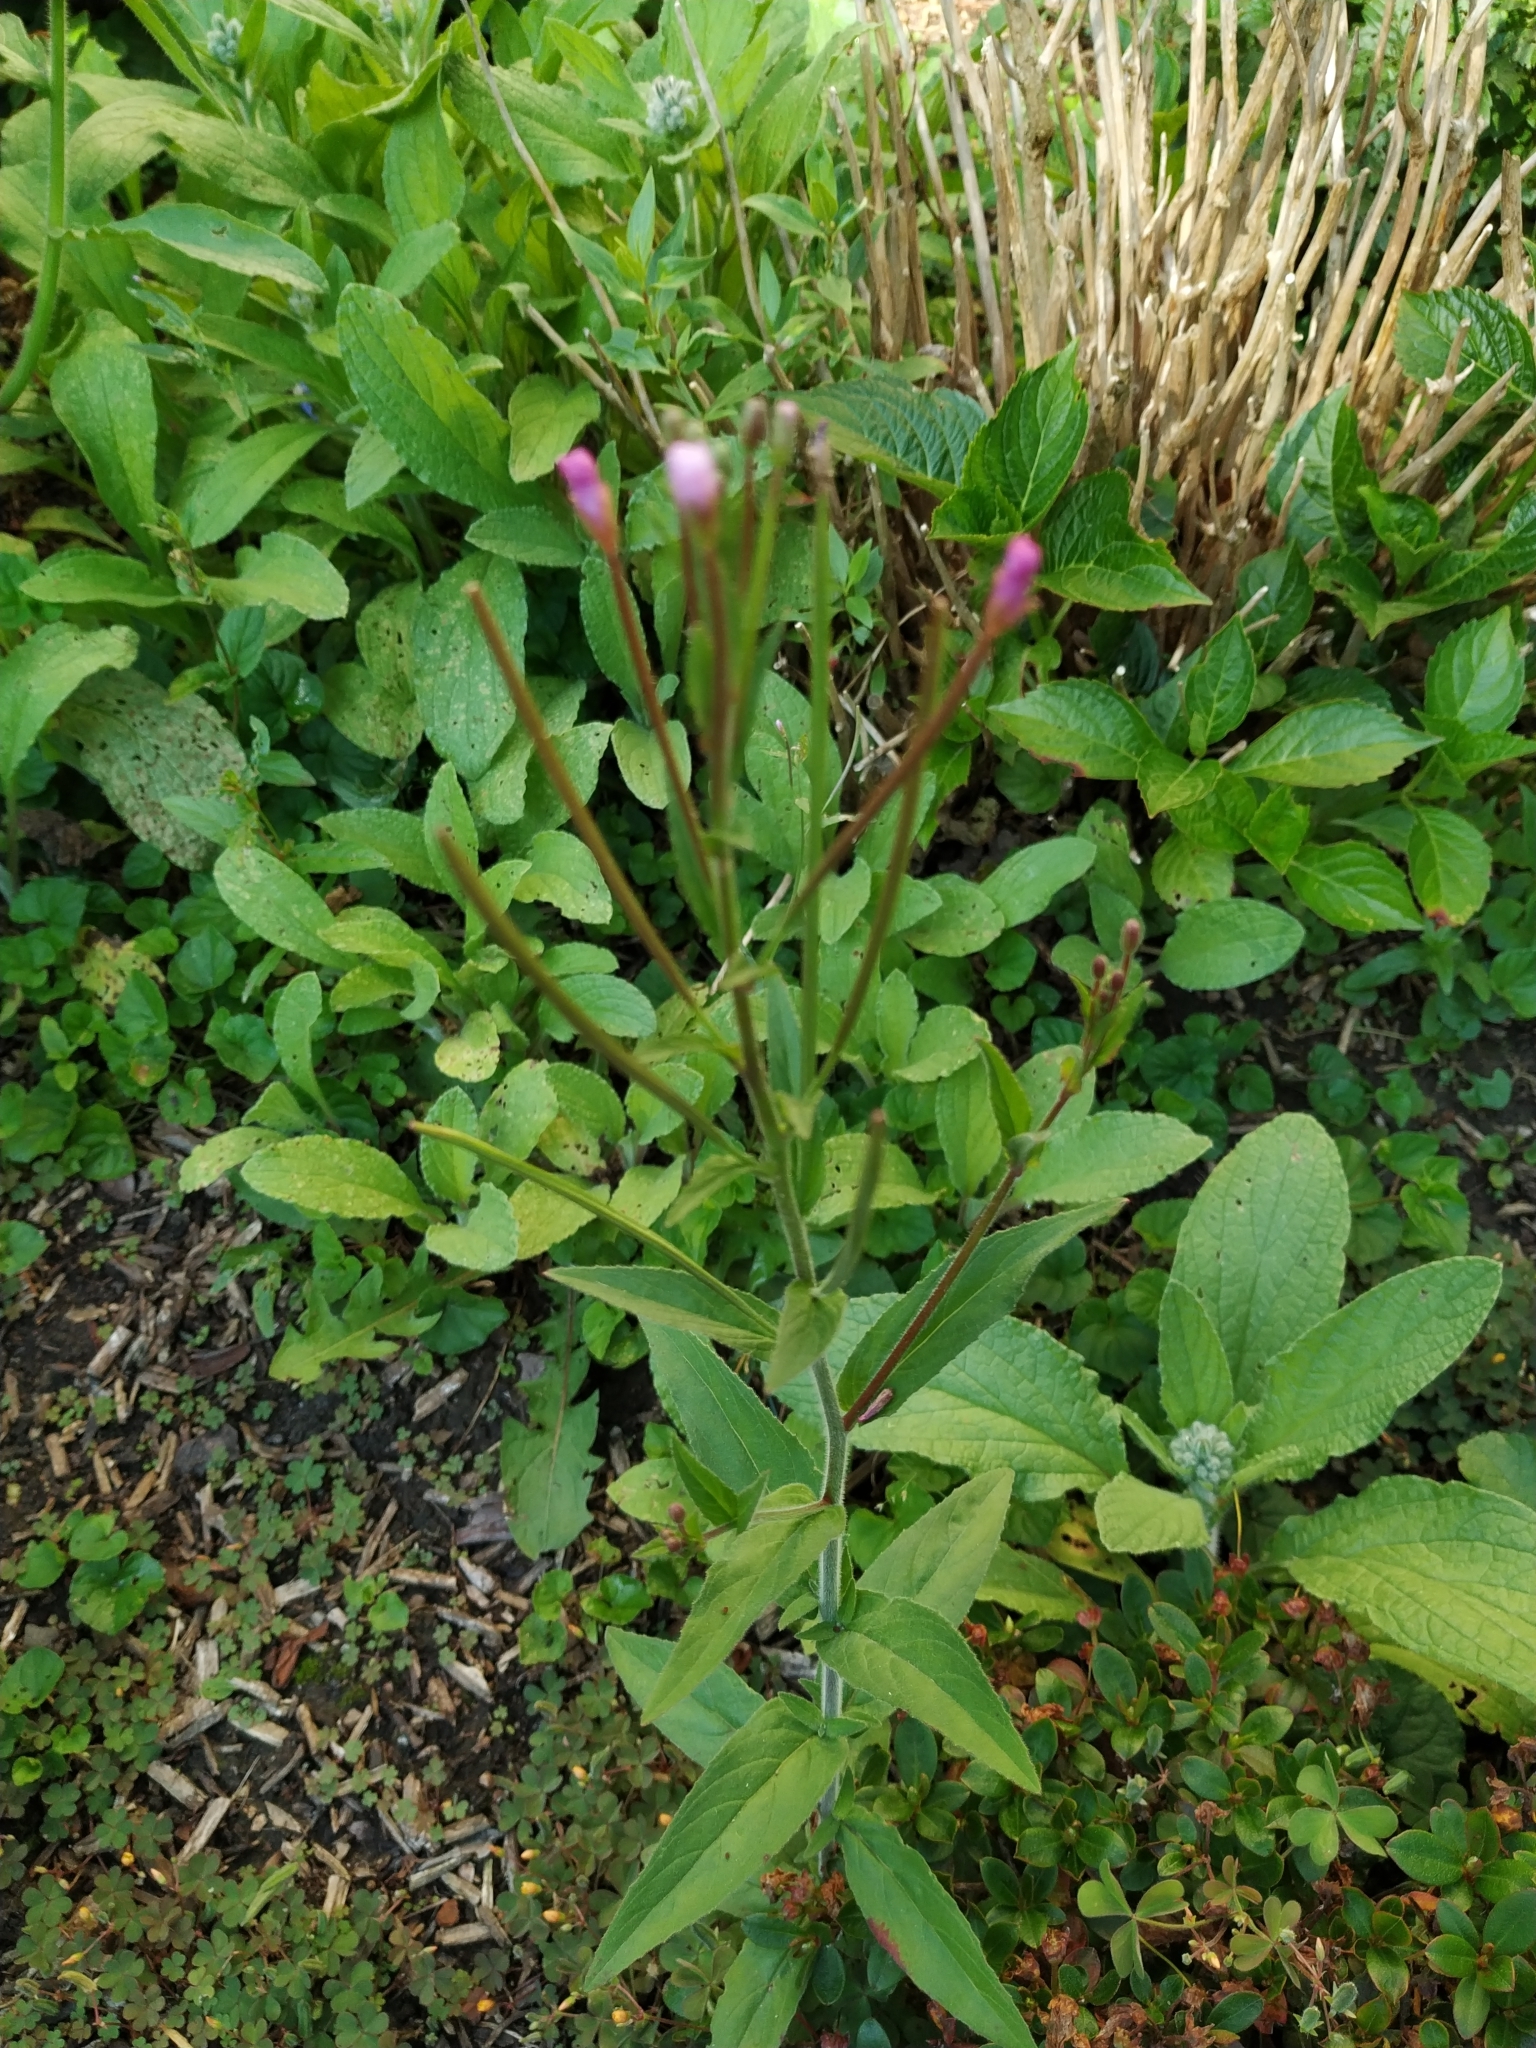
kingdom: Plantae
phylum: Tracheophyta
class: Magnoliopsida
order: Myrtales
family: Onagraceae
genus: Epilobium
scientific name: Epilobium parviflorum
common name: Hoary willowherb
